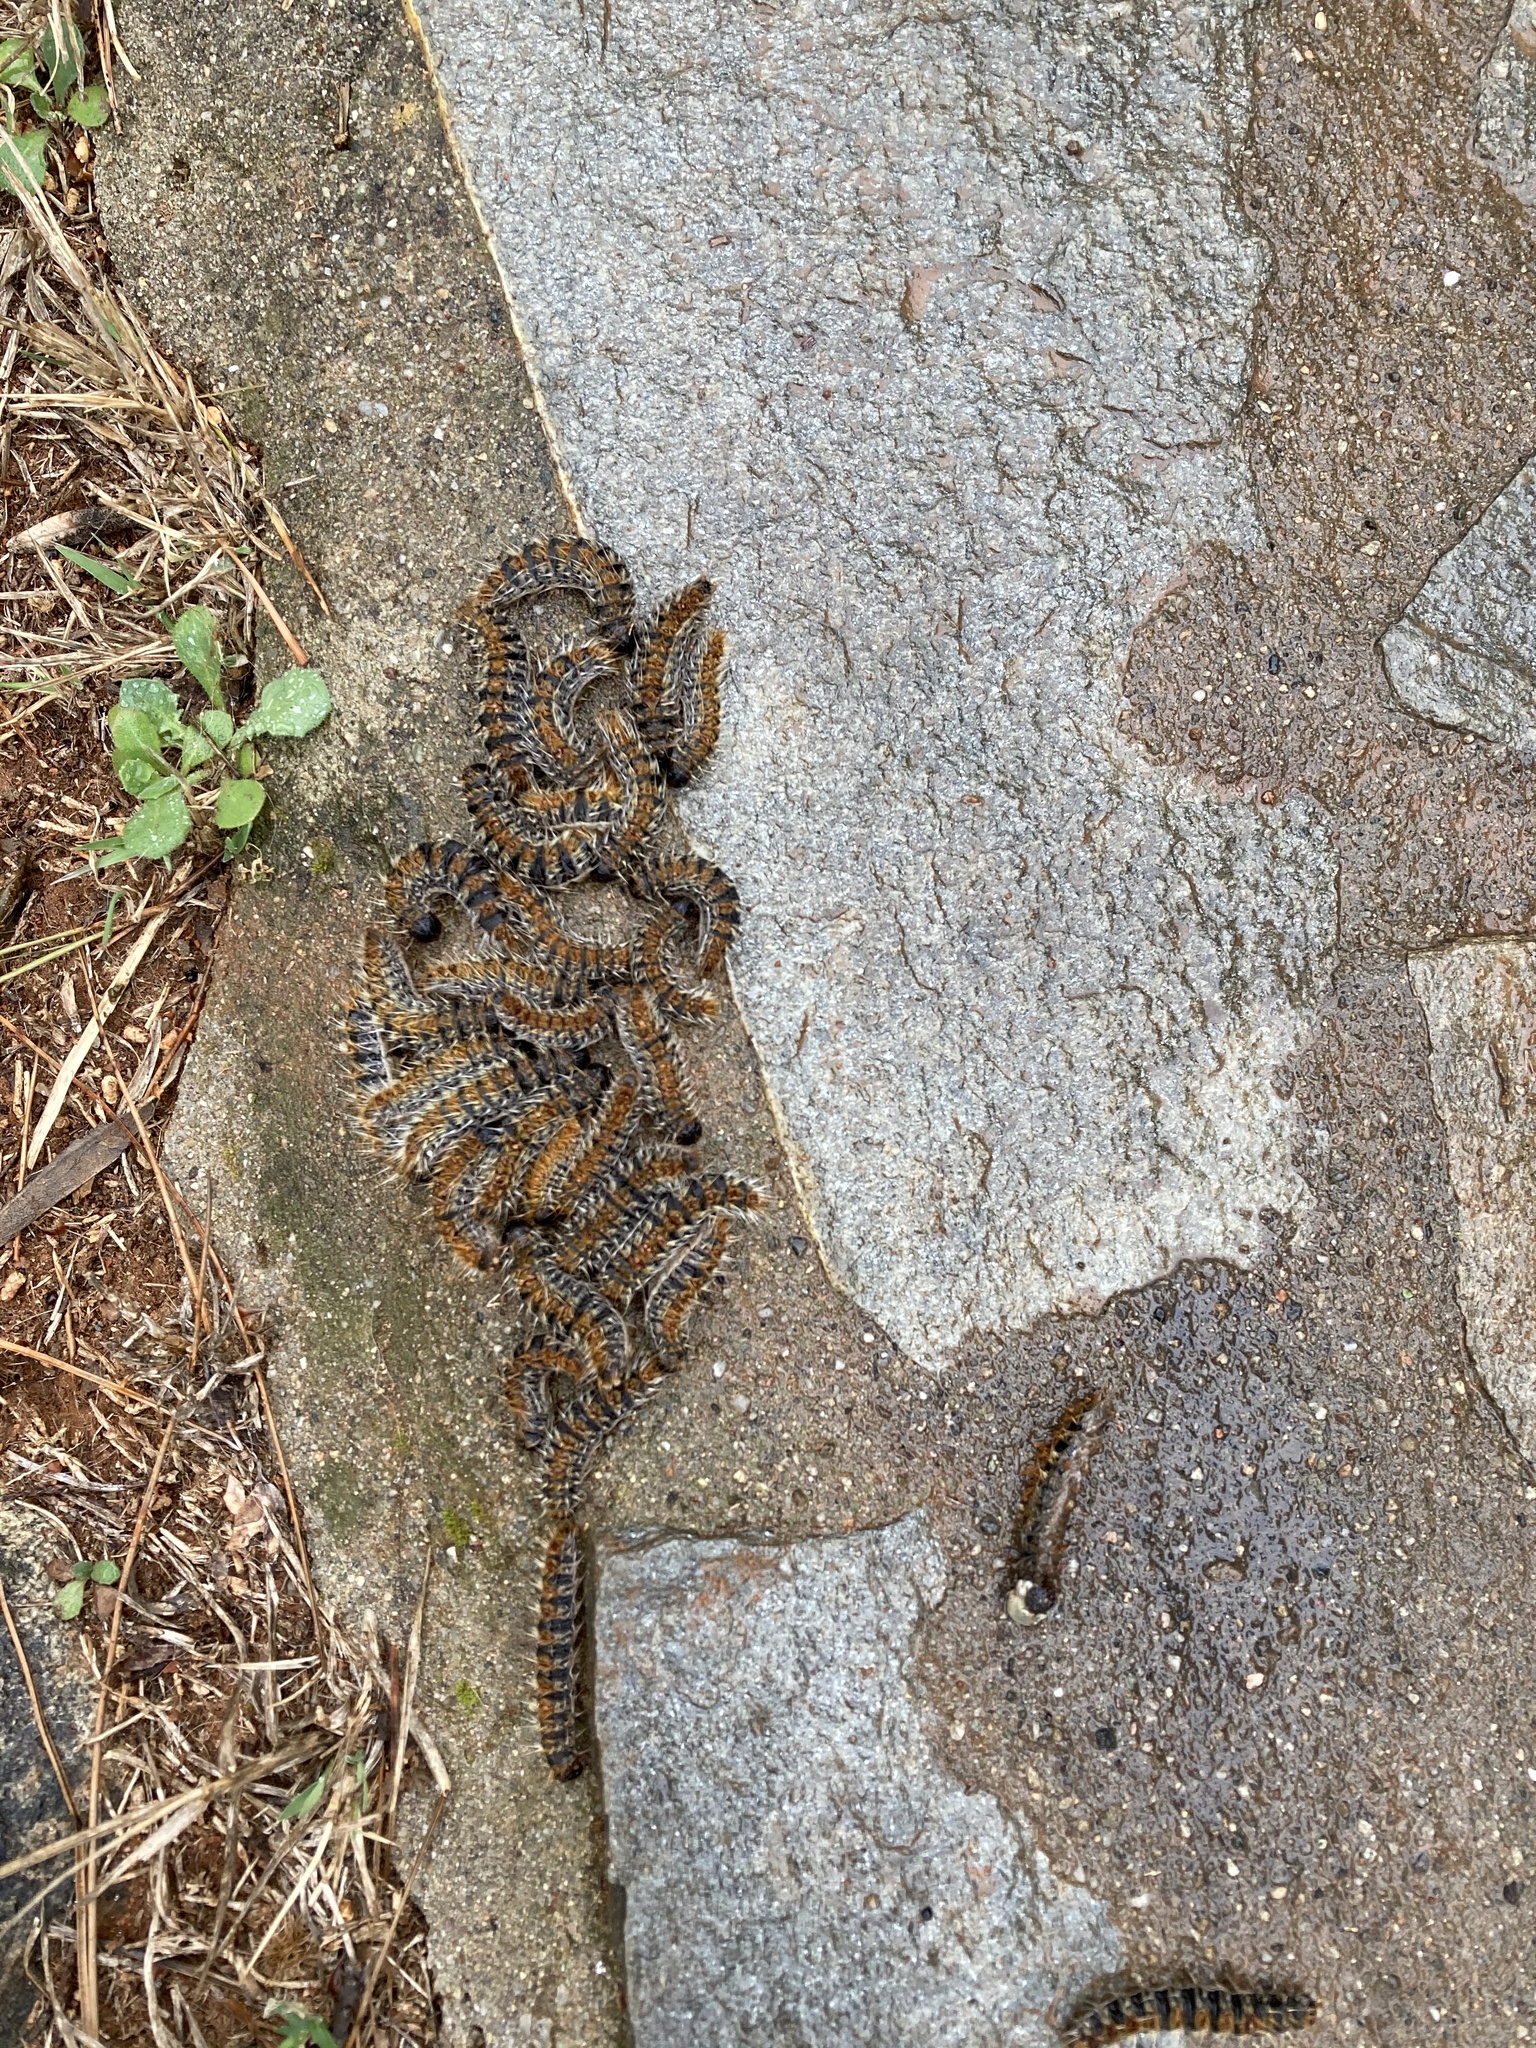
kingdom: Animalia
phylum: Arthropoda
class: Insecta
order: Lepidoptera
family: Notodontidae
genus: Thaumetopoea
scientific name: Thaumetopoea pityocampa
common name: Pine processionary
